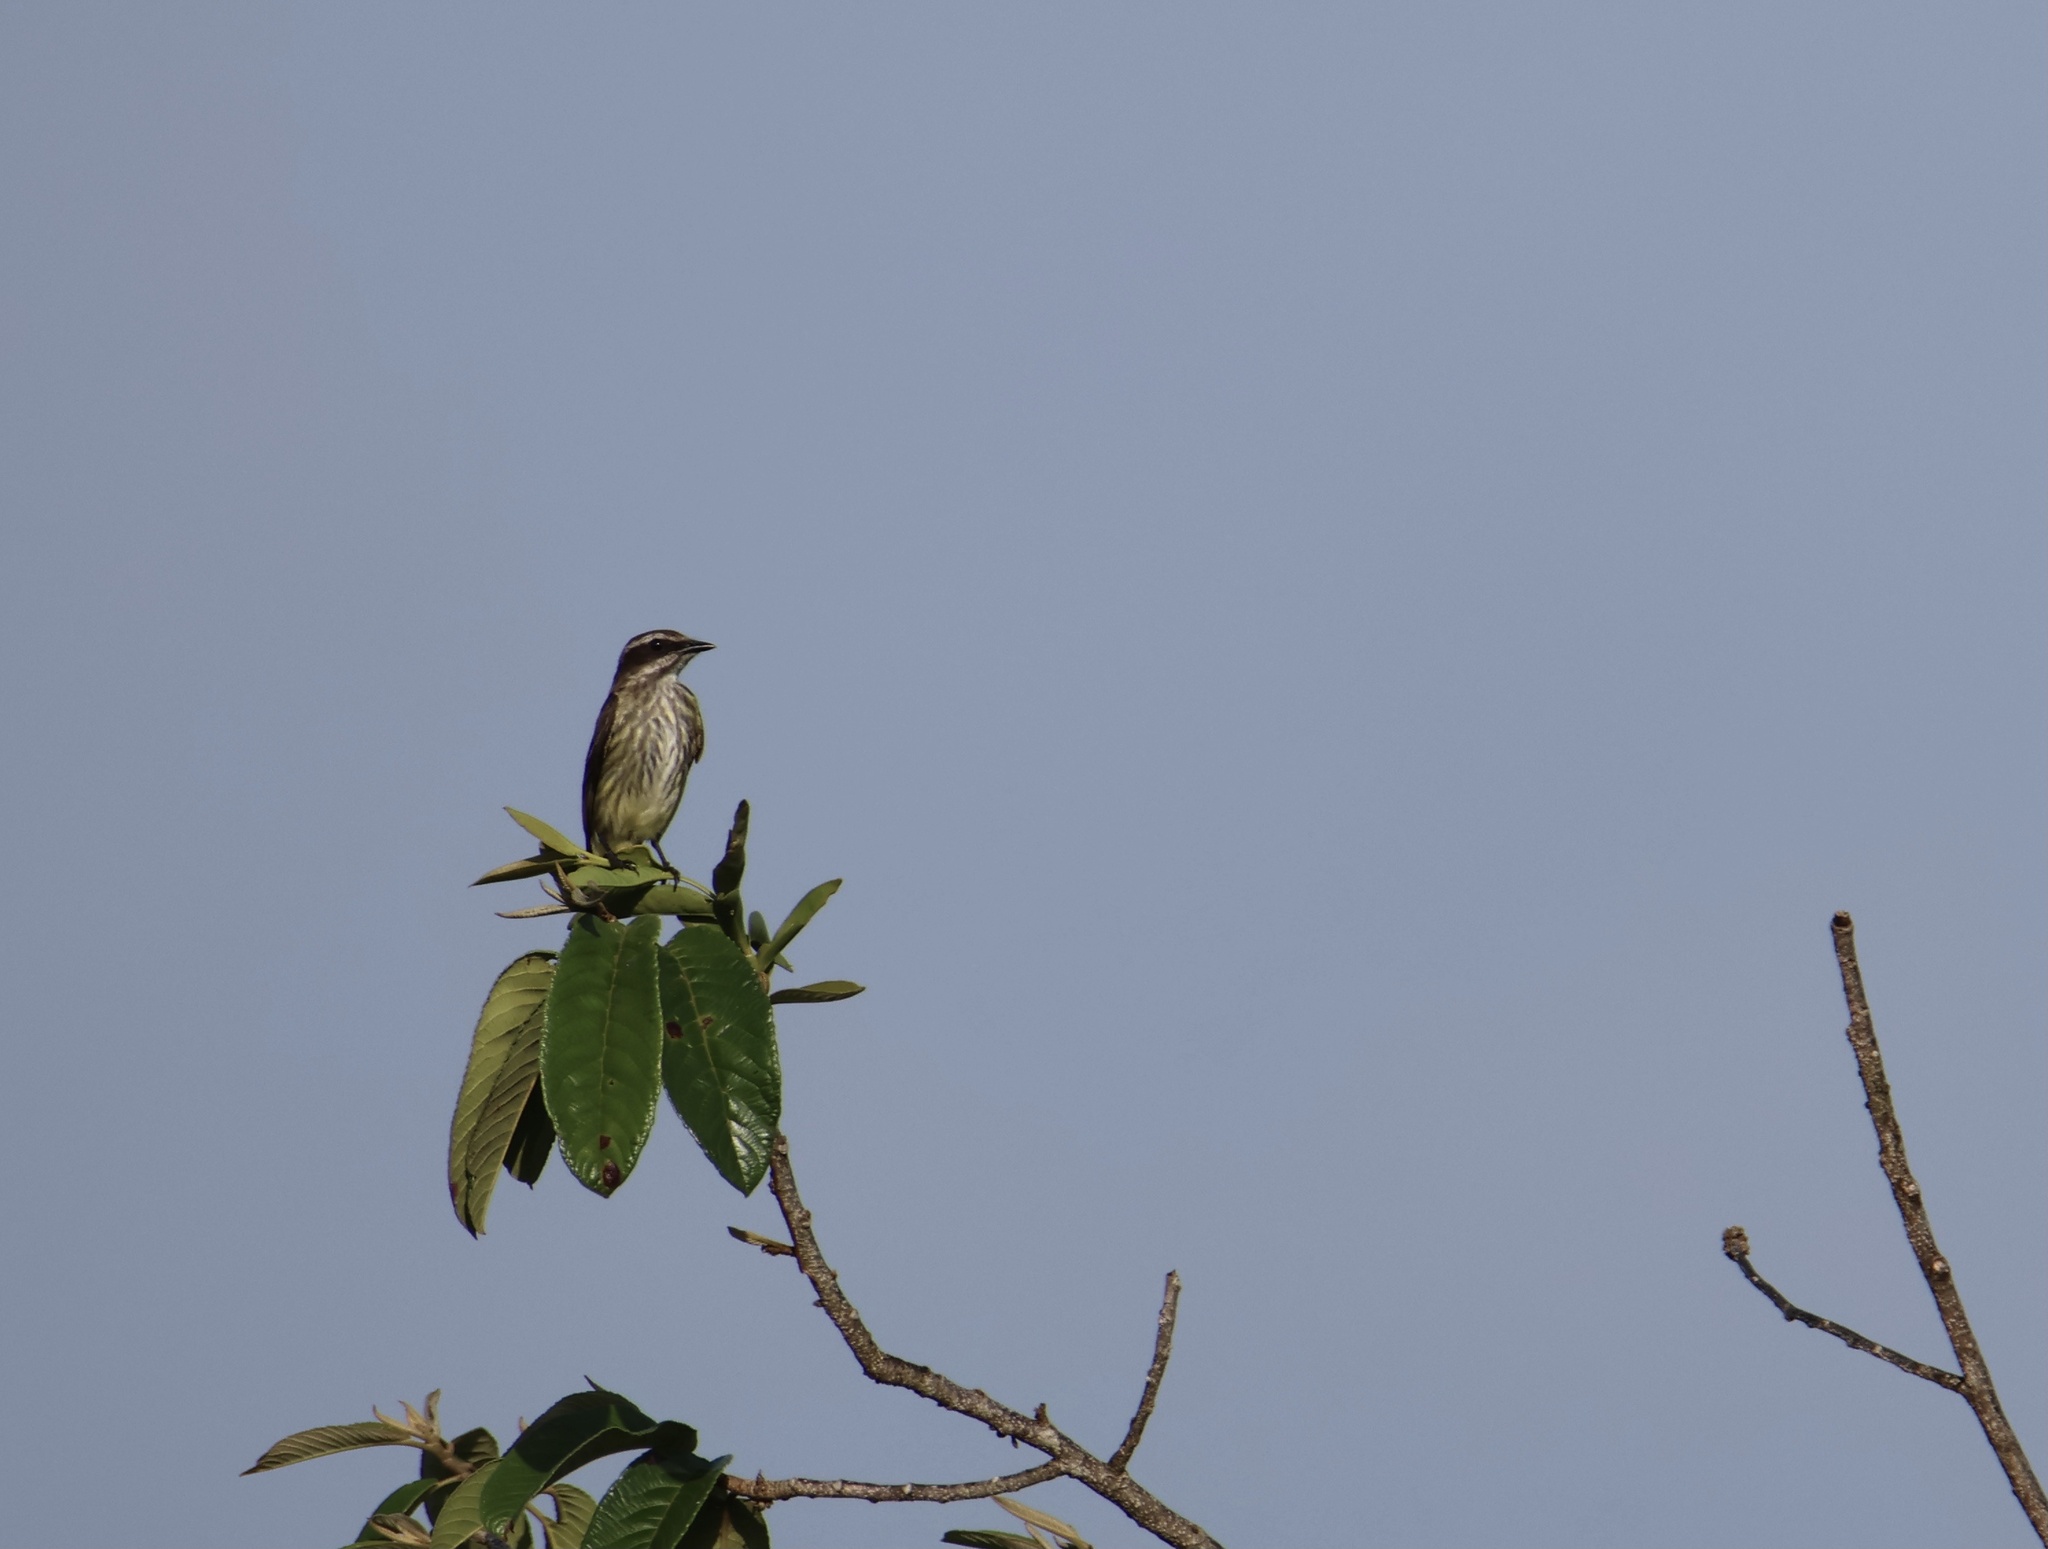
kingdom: Animalia
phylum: Chordata
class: Aves
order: Passeriformes
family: Tyrannidae
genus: Legatus
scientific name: Legatus leucophaius
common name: Piratic flycatcher
